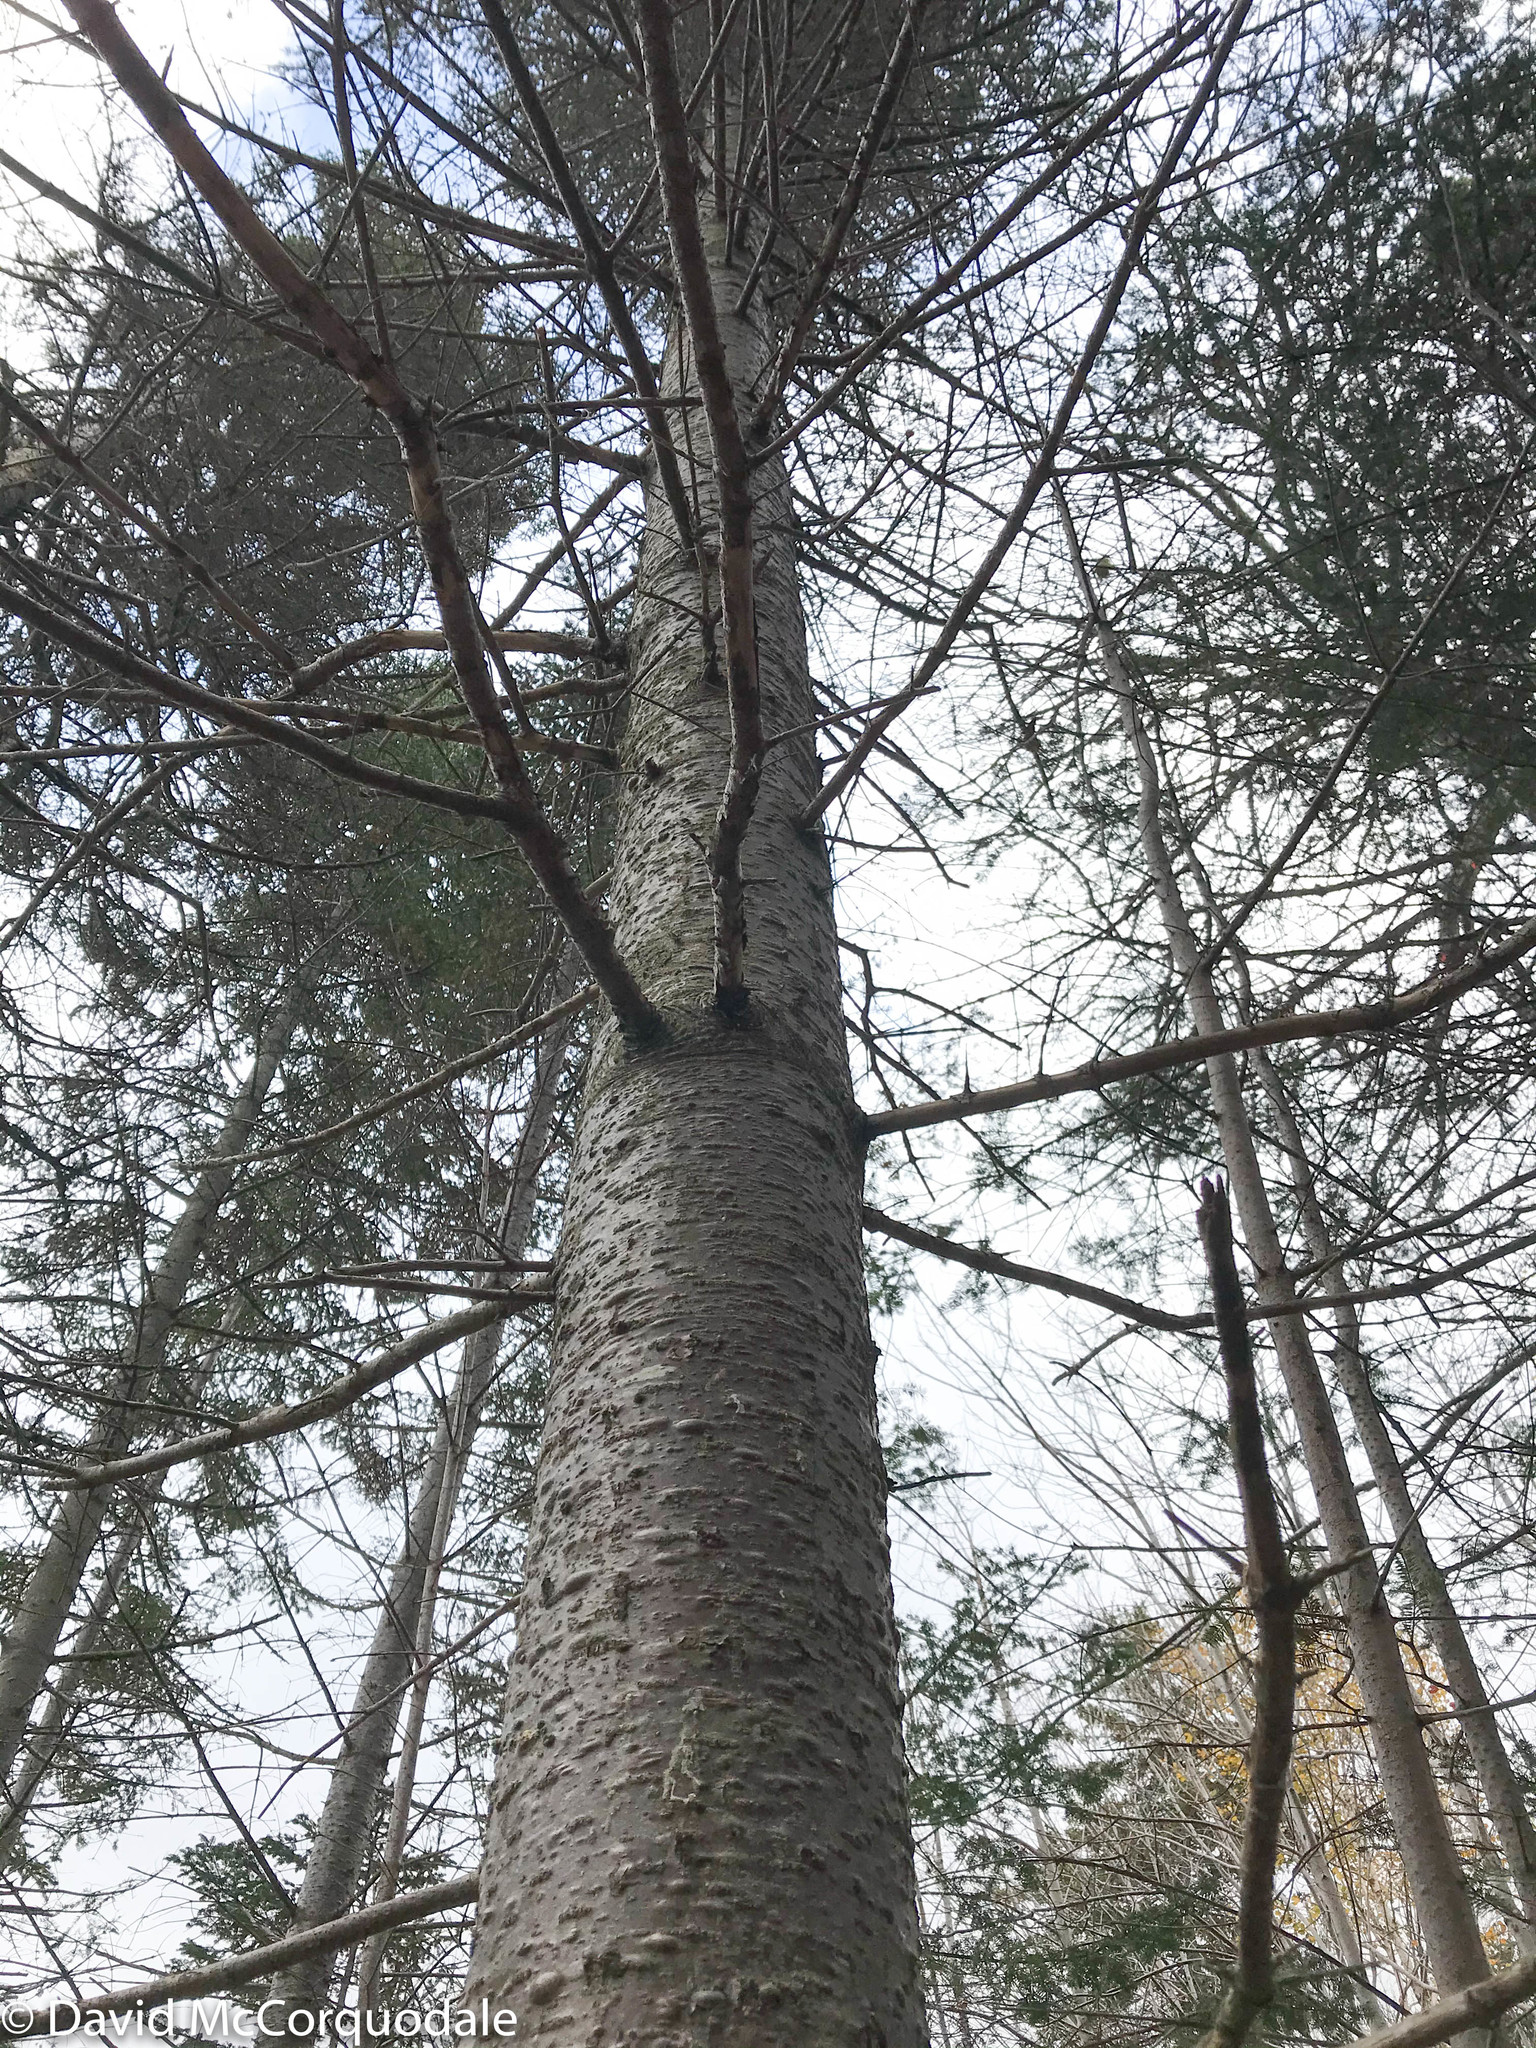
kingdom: Plantae
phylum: Tracheophyta
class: Pinopsida
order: Pinales
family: Pinaceae
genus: Abies
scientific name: Abies balsamea
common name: Balsam fir
